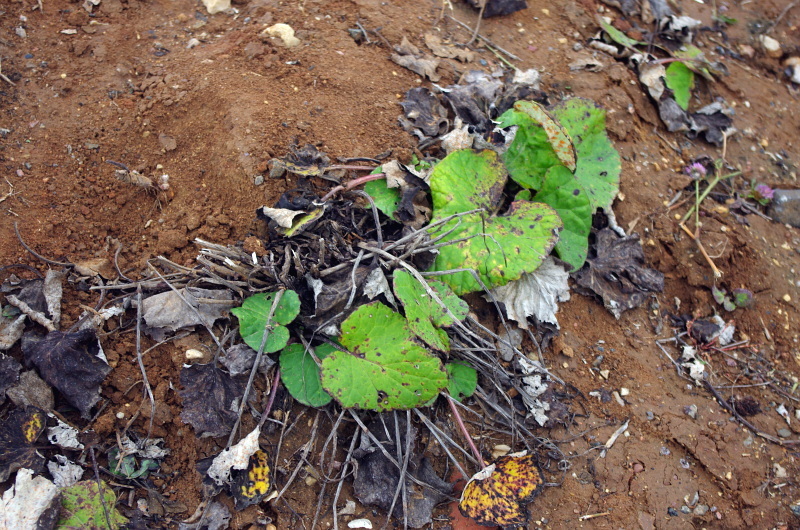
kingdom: Plantae
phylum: Tracheophyta
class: Magnoliopsida
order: Asterales
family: Asteraceae
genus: Tussilago
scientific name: Tussilago farfara
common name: Coltsfoot
